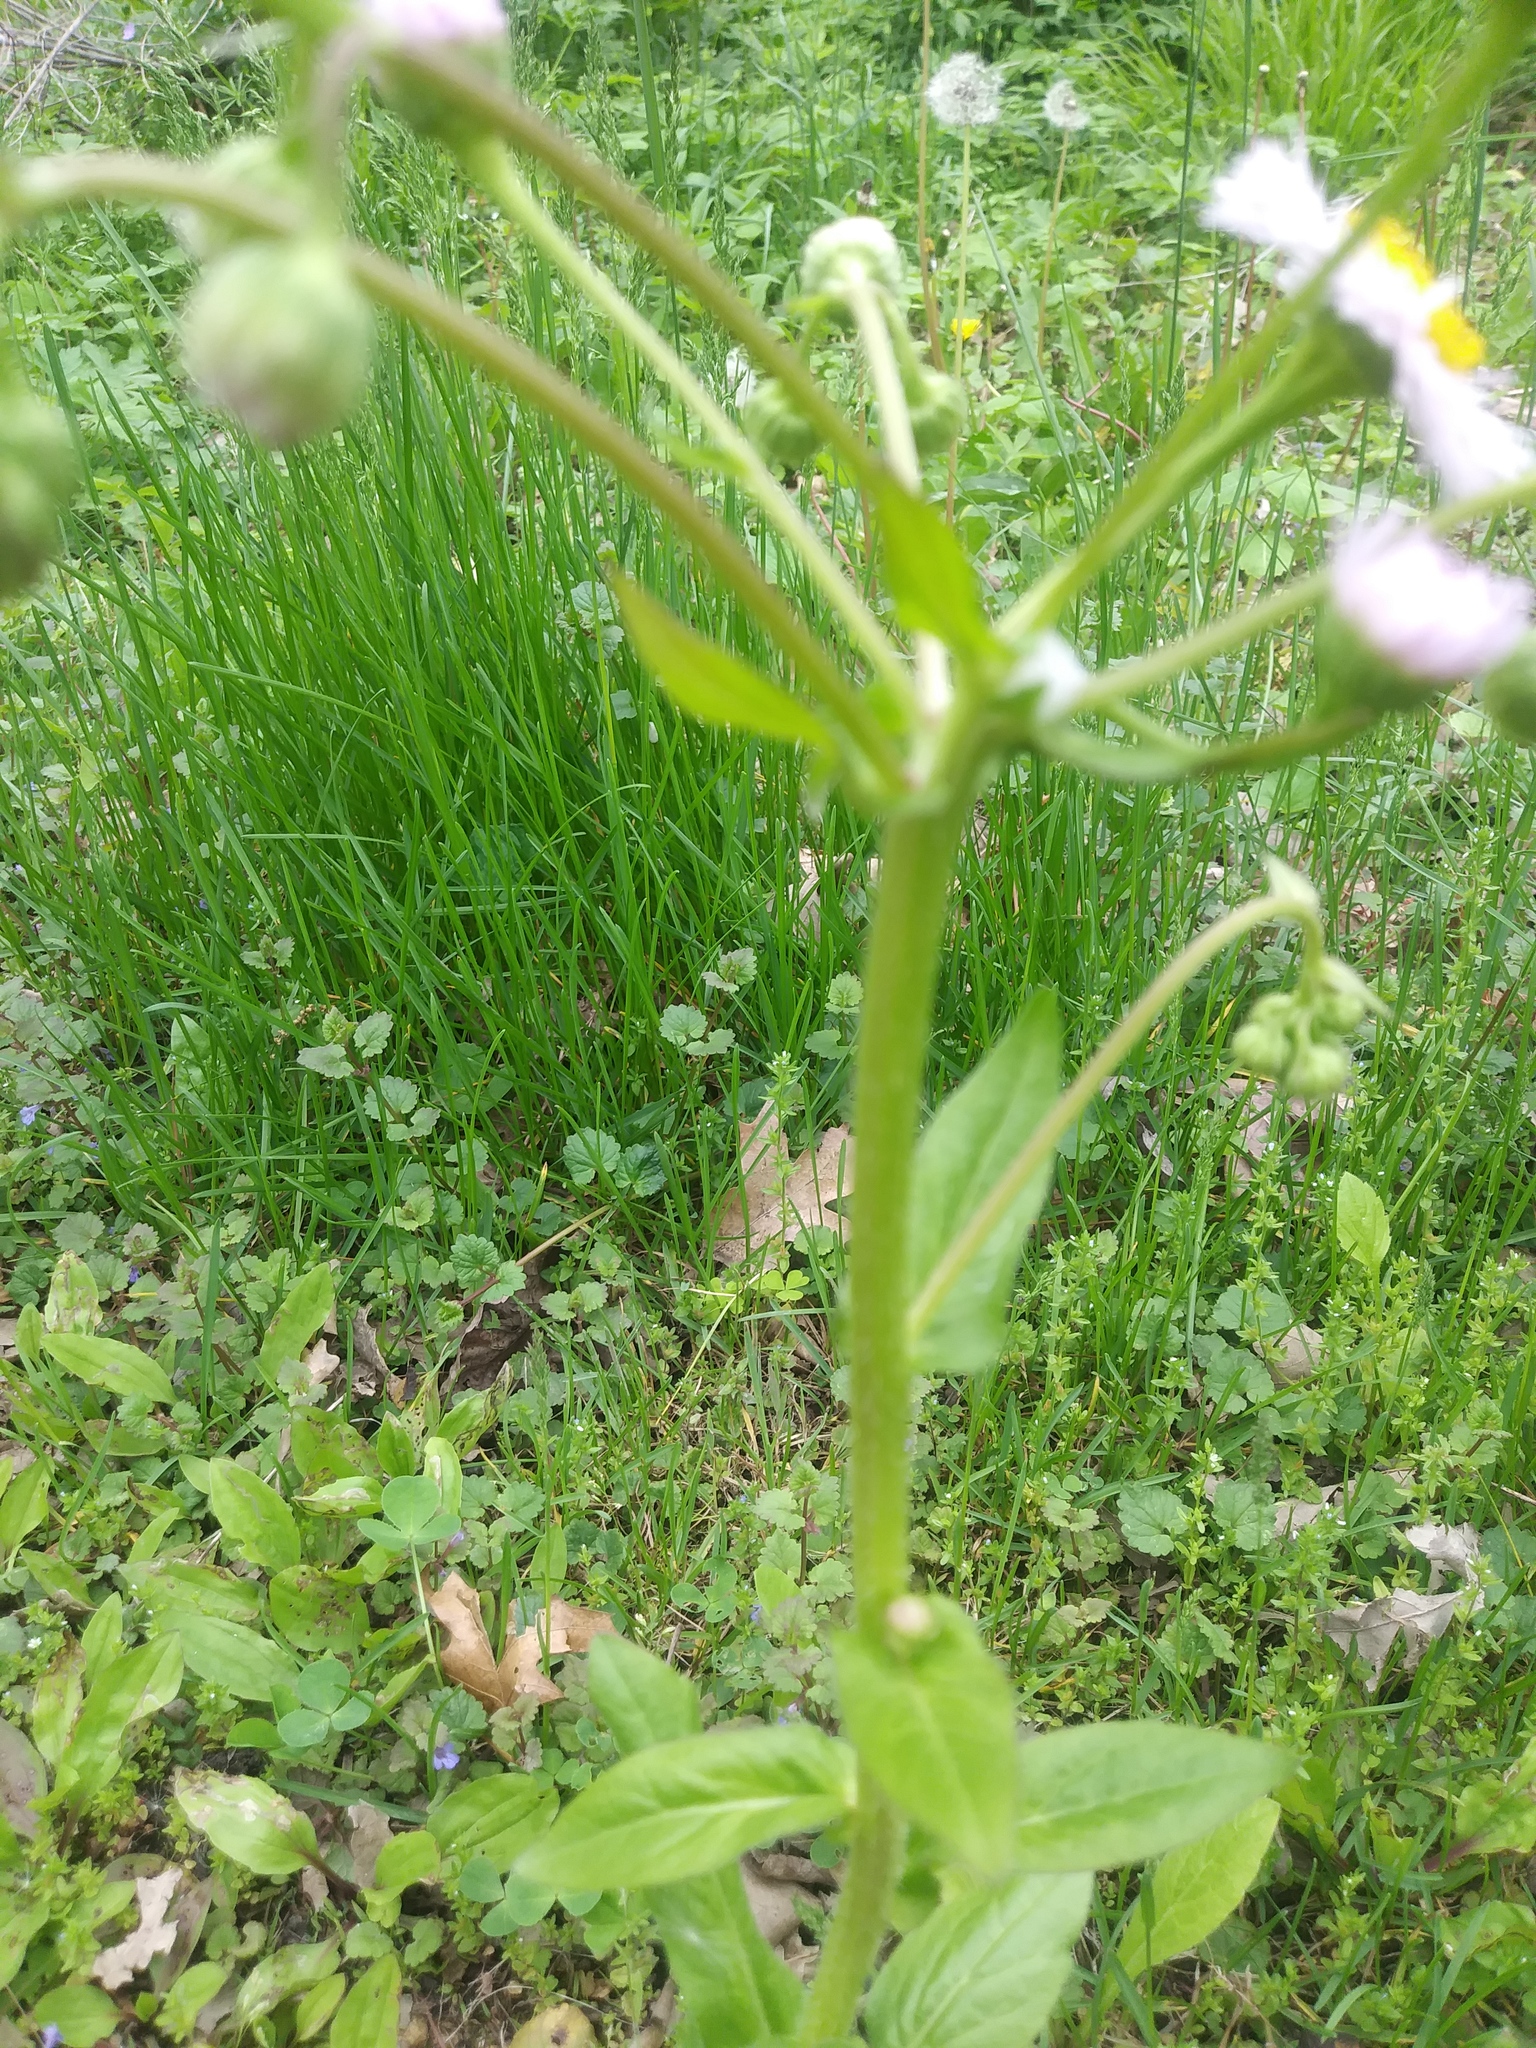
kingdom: Plantae
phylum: Tracheophyta
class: Magnoliopsida
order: Asterales
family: Asteraceae
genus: Erigeron
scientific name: Erigeron philadelphicus
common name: Robin's-plantain
